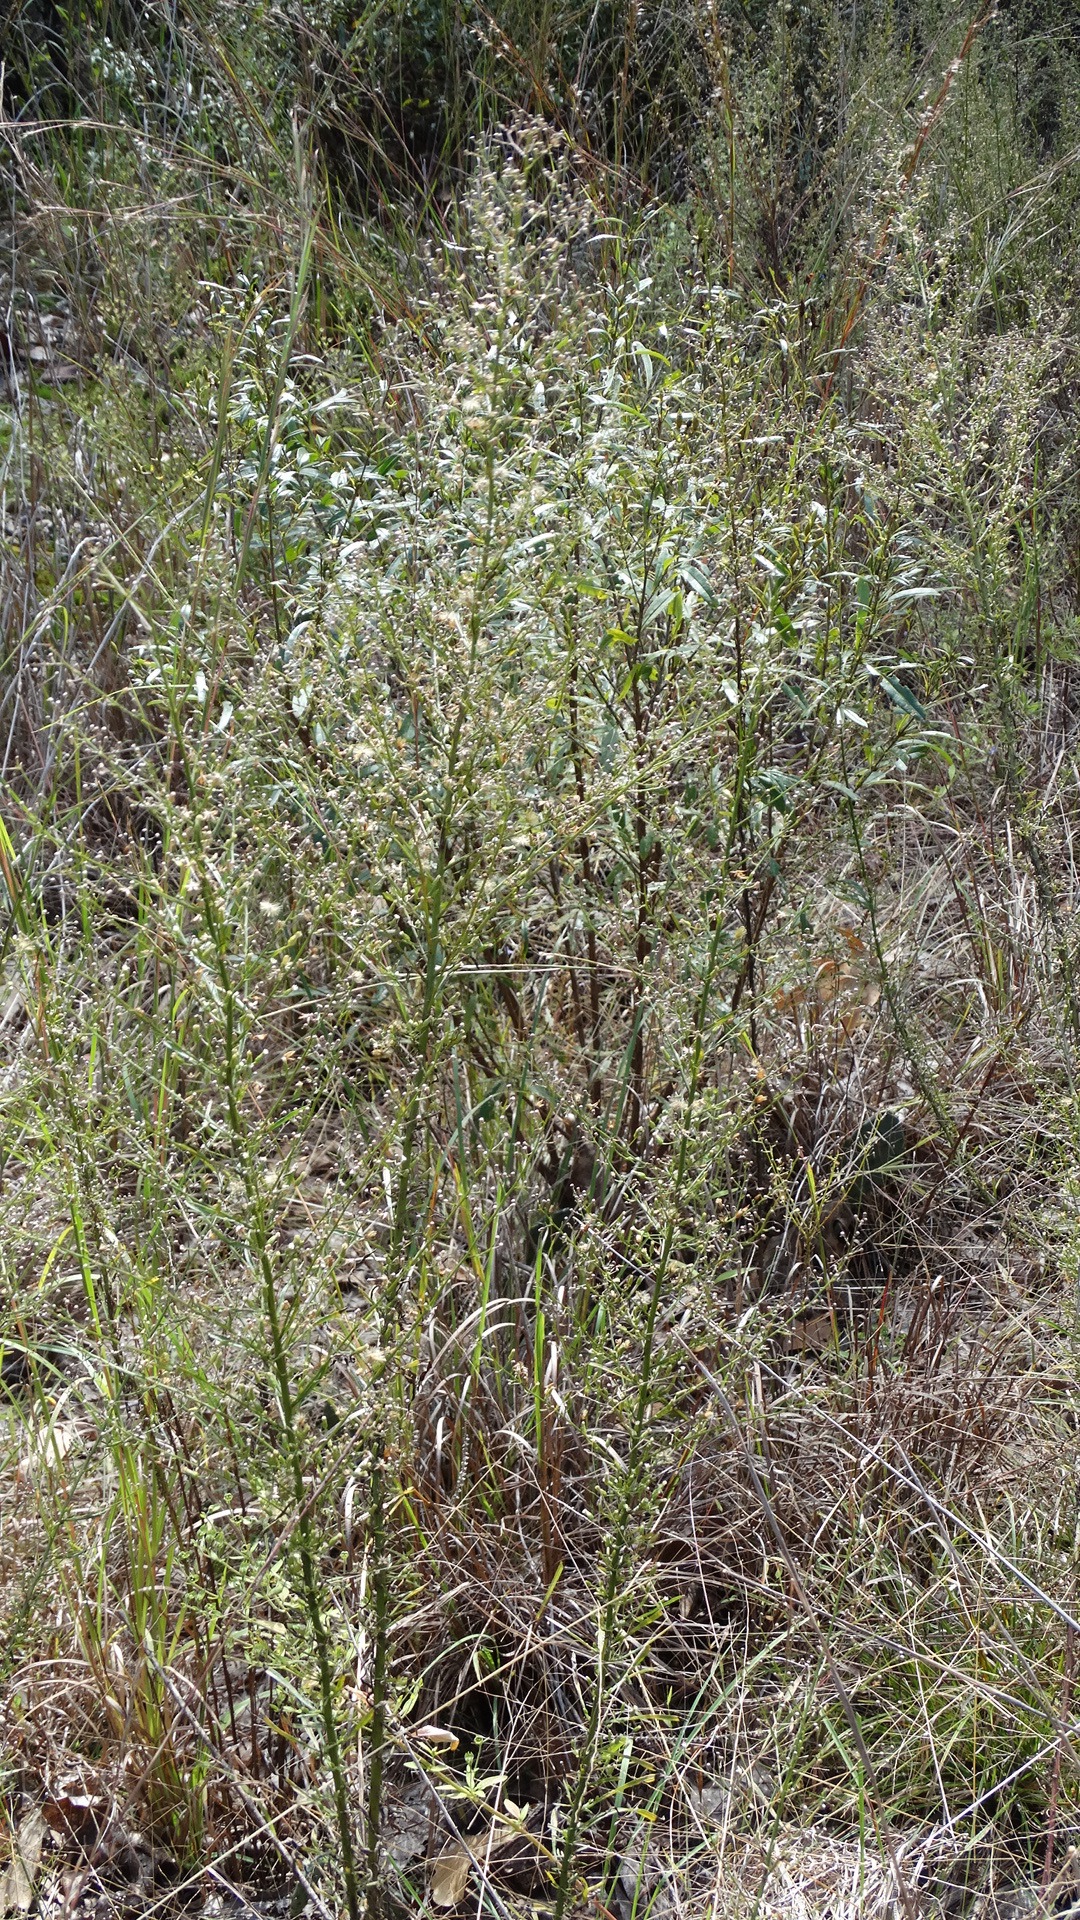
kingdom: Plantae
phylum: Tracheophyta
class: Magnoliopsida
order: Asterales
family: Asteraceae
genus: Erigeron
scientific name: Erigeron canadensis
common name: Canadian fleabane
